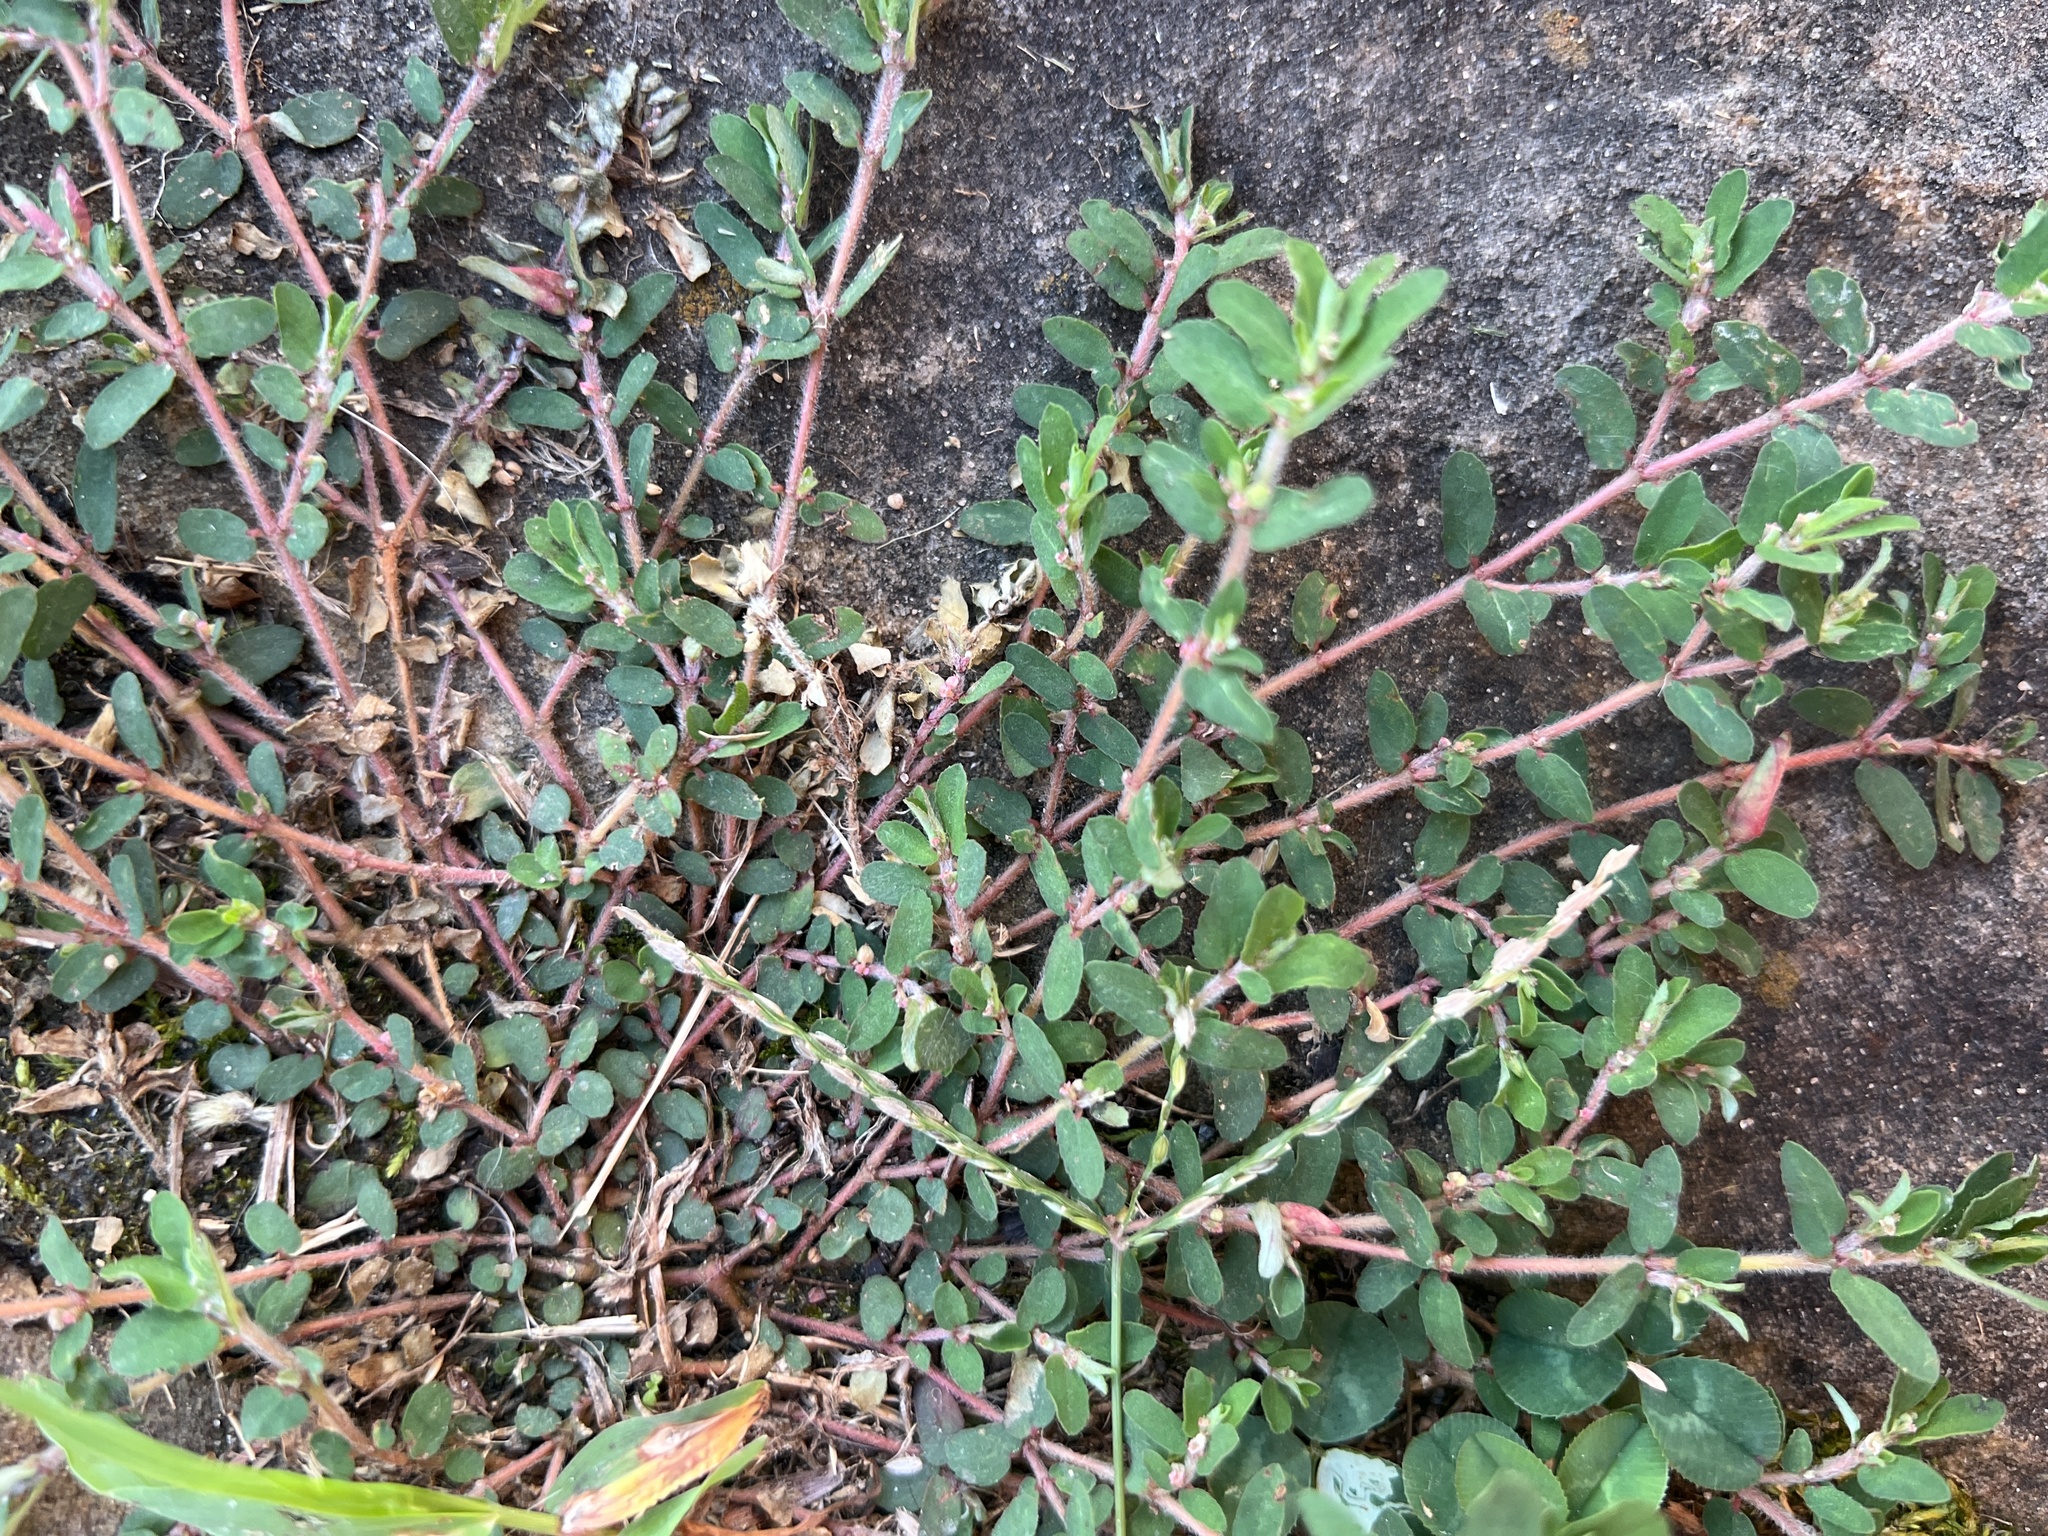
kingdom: Plantae
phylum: Tracheophyta
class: Magnoliopsida
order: Malpighiales
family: Euphorbiaceae
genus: Euphorbia
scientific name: Euphorbia maculata
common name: Spotted spurge
